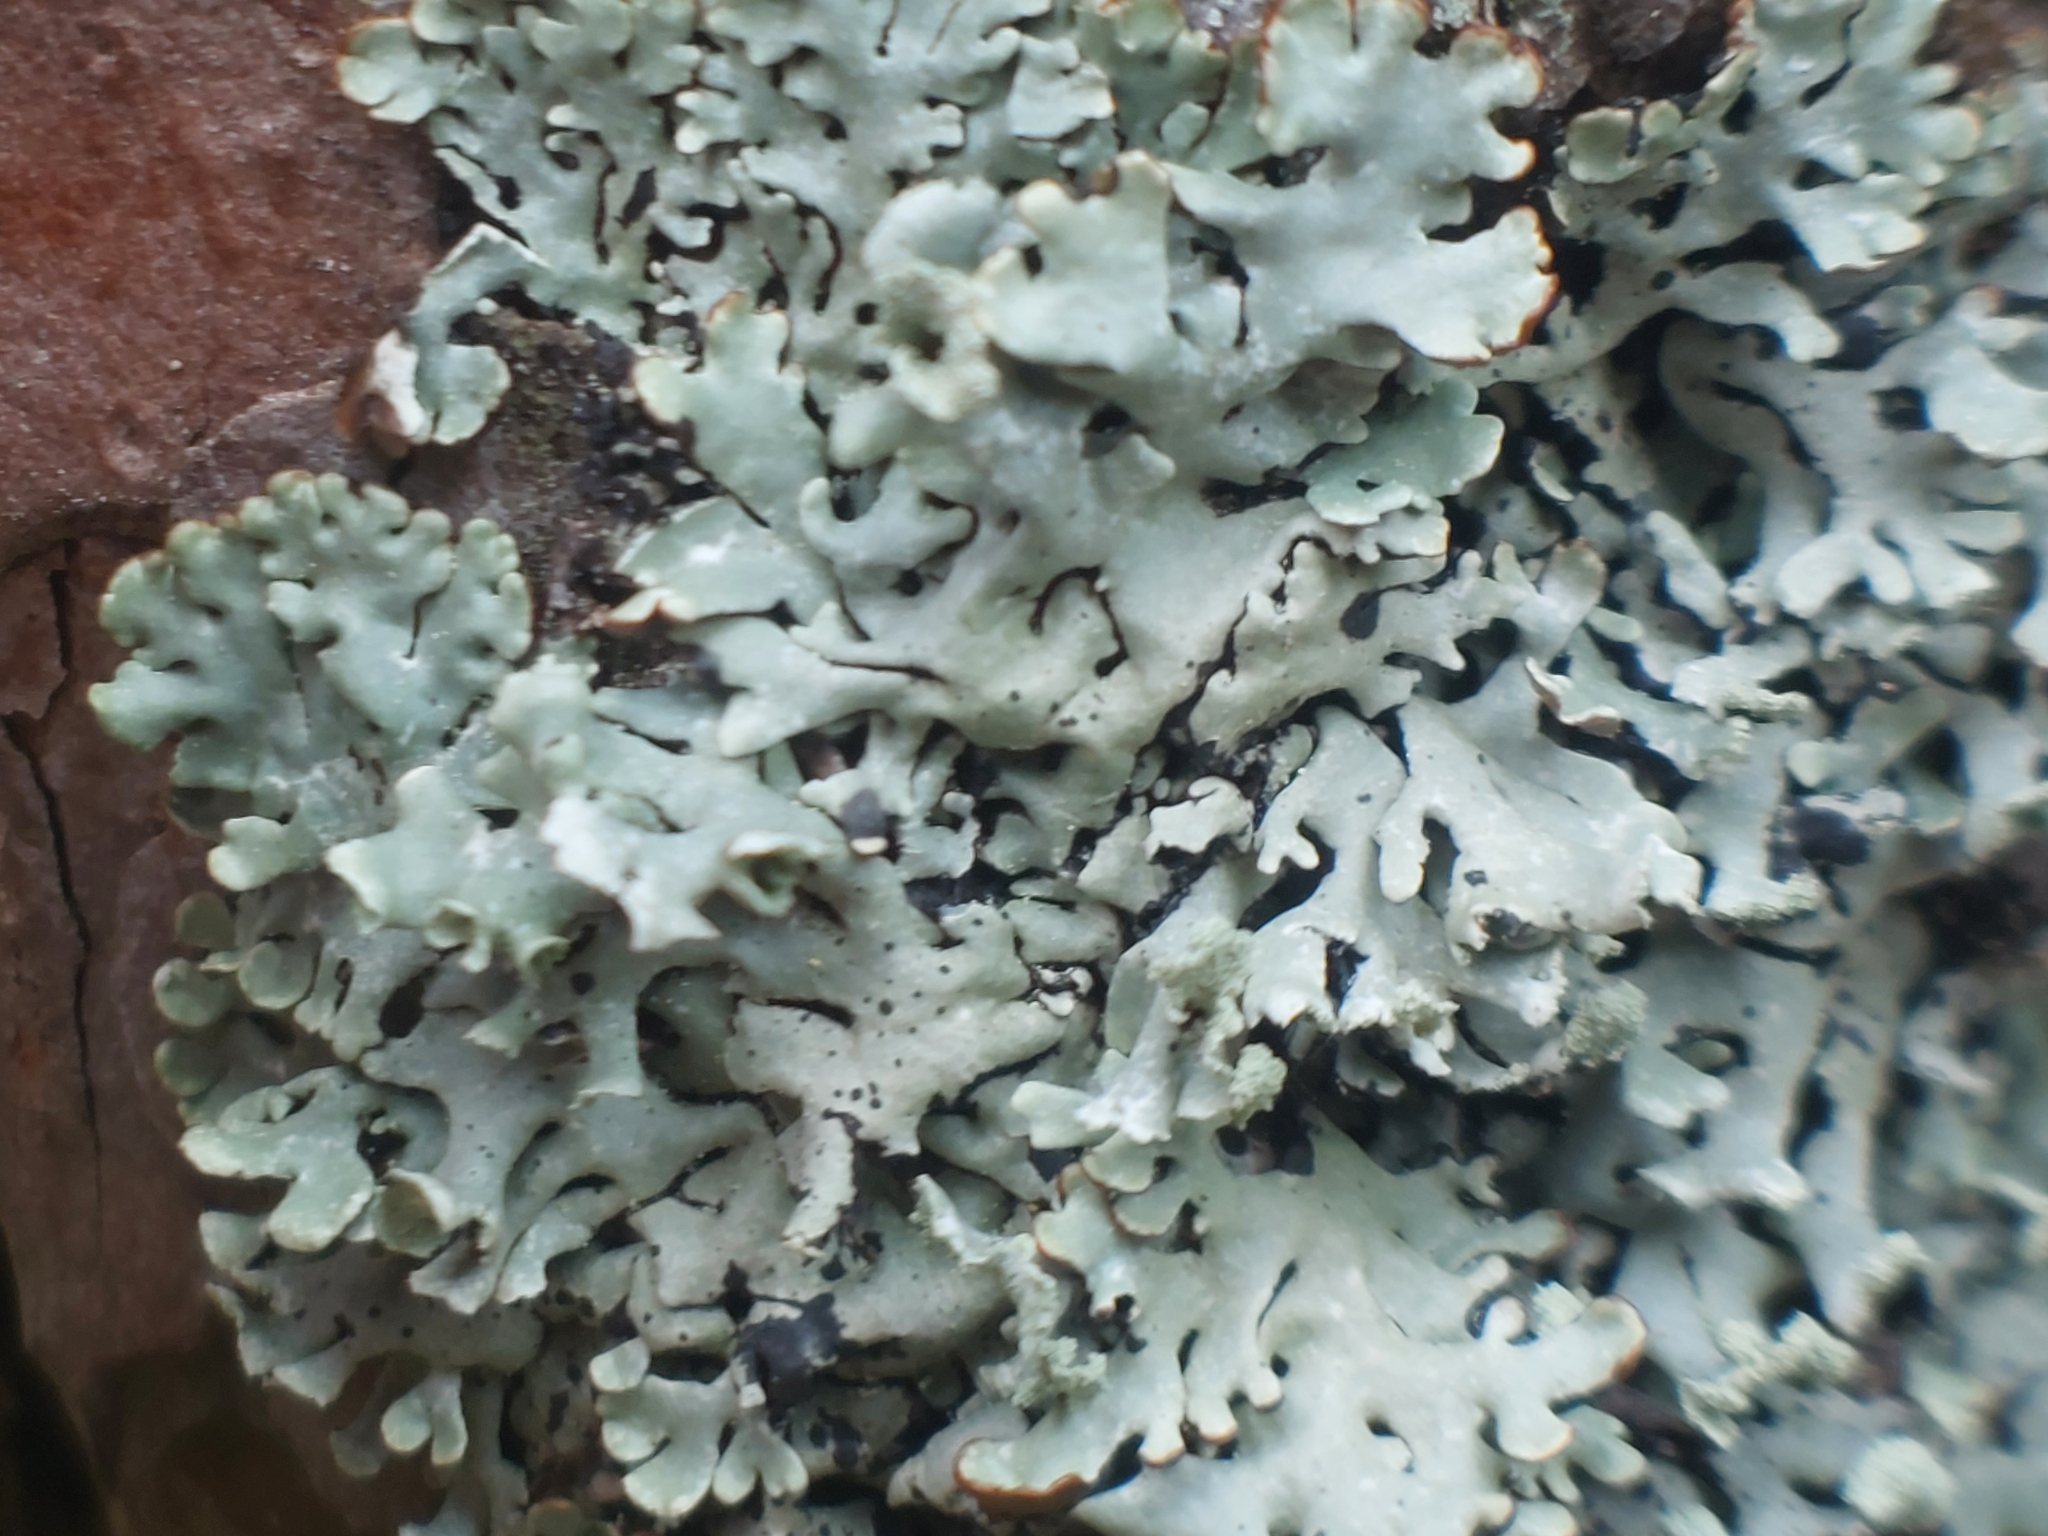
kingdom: Fungi
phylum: Ascomycota
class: Lecanoromycetes
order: Lecanorales
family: Parmeliaceae
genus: Hypogymnia
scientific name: Hypogymnia physodes
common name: Dark crottle
